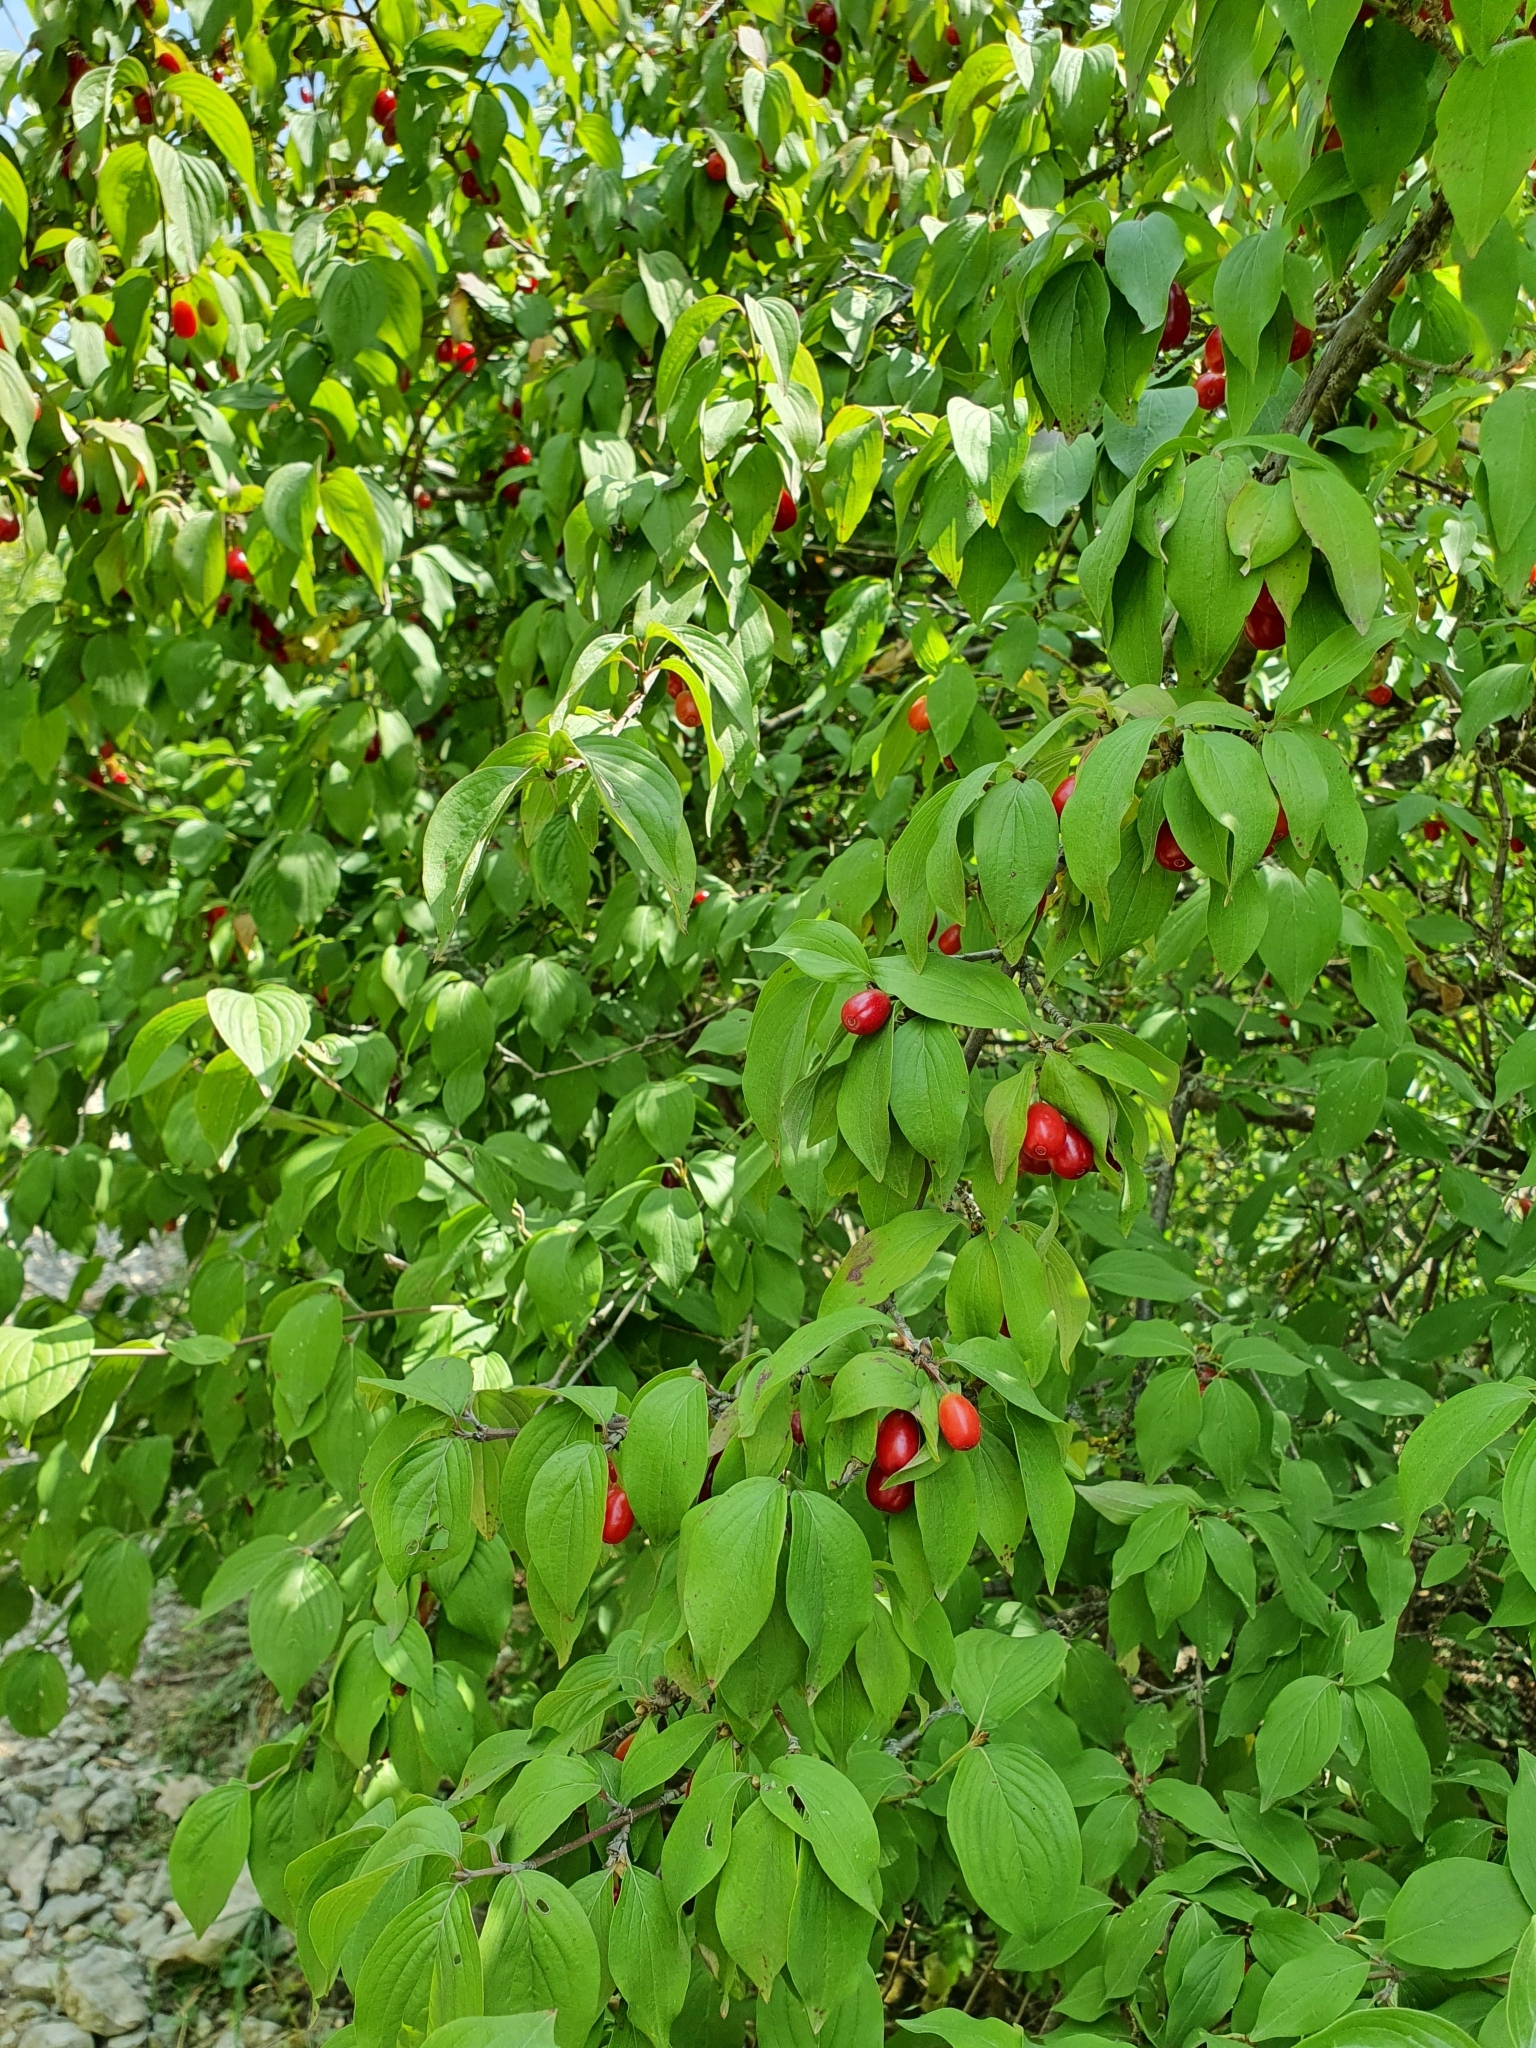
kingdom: Plantae
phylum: Tracheophyta
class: Magnoliopsida
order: Cornales
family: Cornaceae
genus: Cornus
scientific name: Cornus mas
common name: Cornelian-cherry
